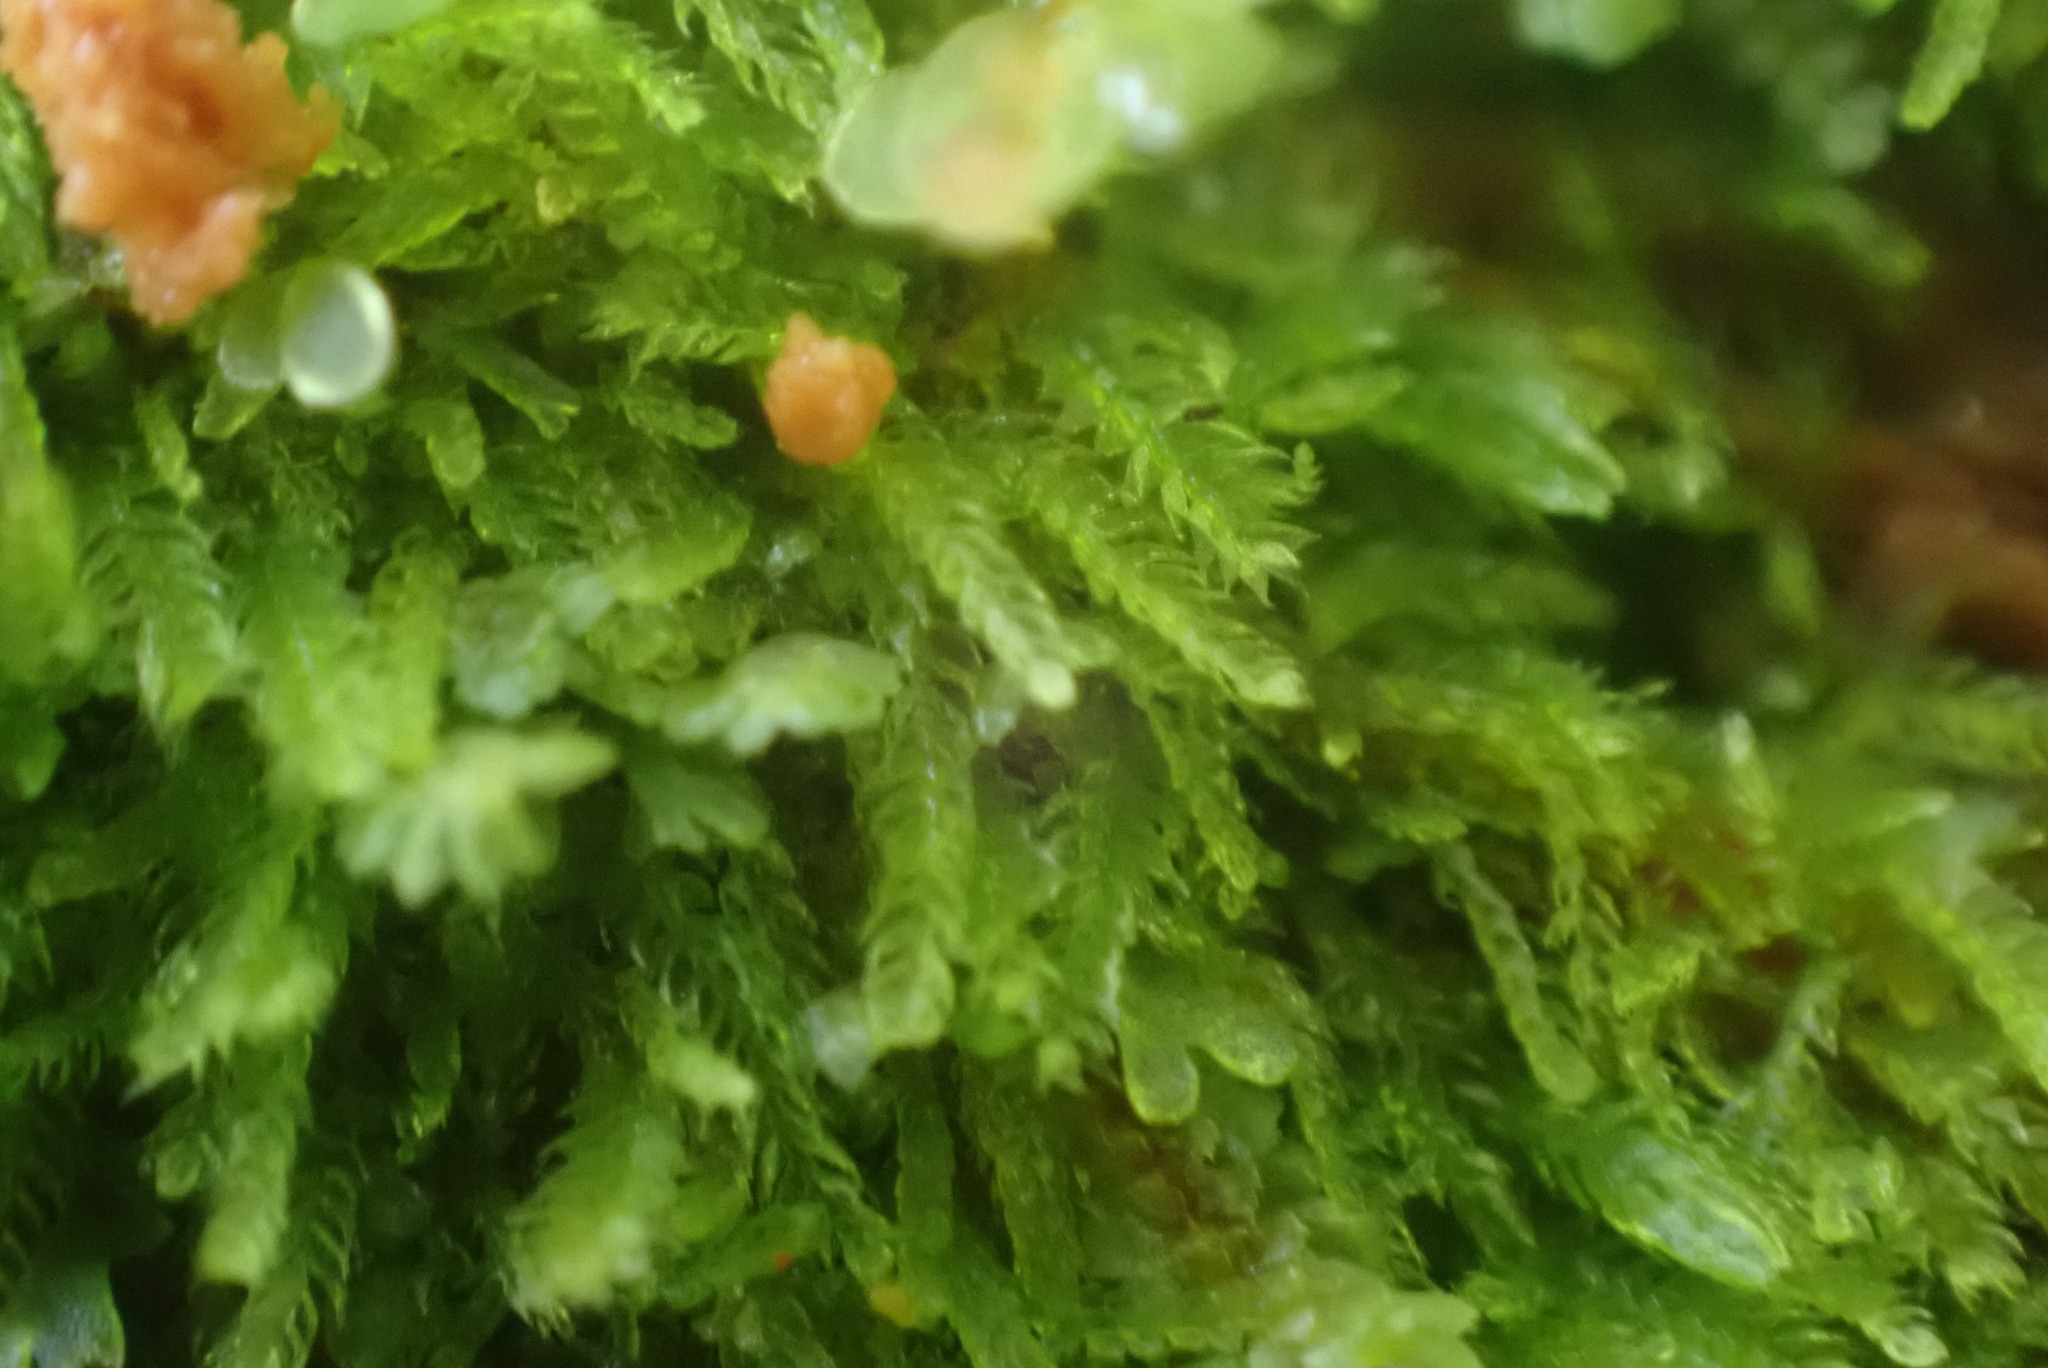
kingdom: Plantae
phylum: Marchantiophyta
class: Jungermanniopsida
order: Jungermanniales
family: Cephaloziaceae
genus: Cephalozia
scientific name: Cephalozia bicuspidata
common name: Two-horned pincerwort
